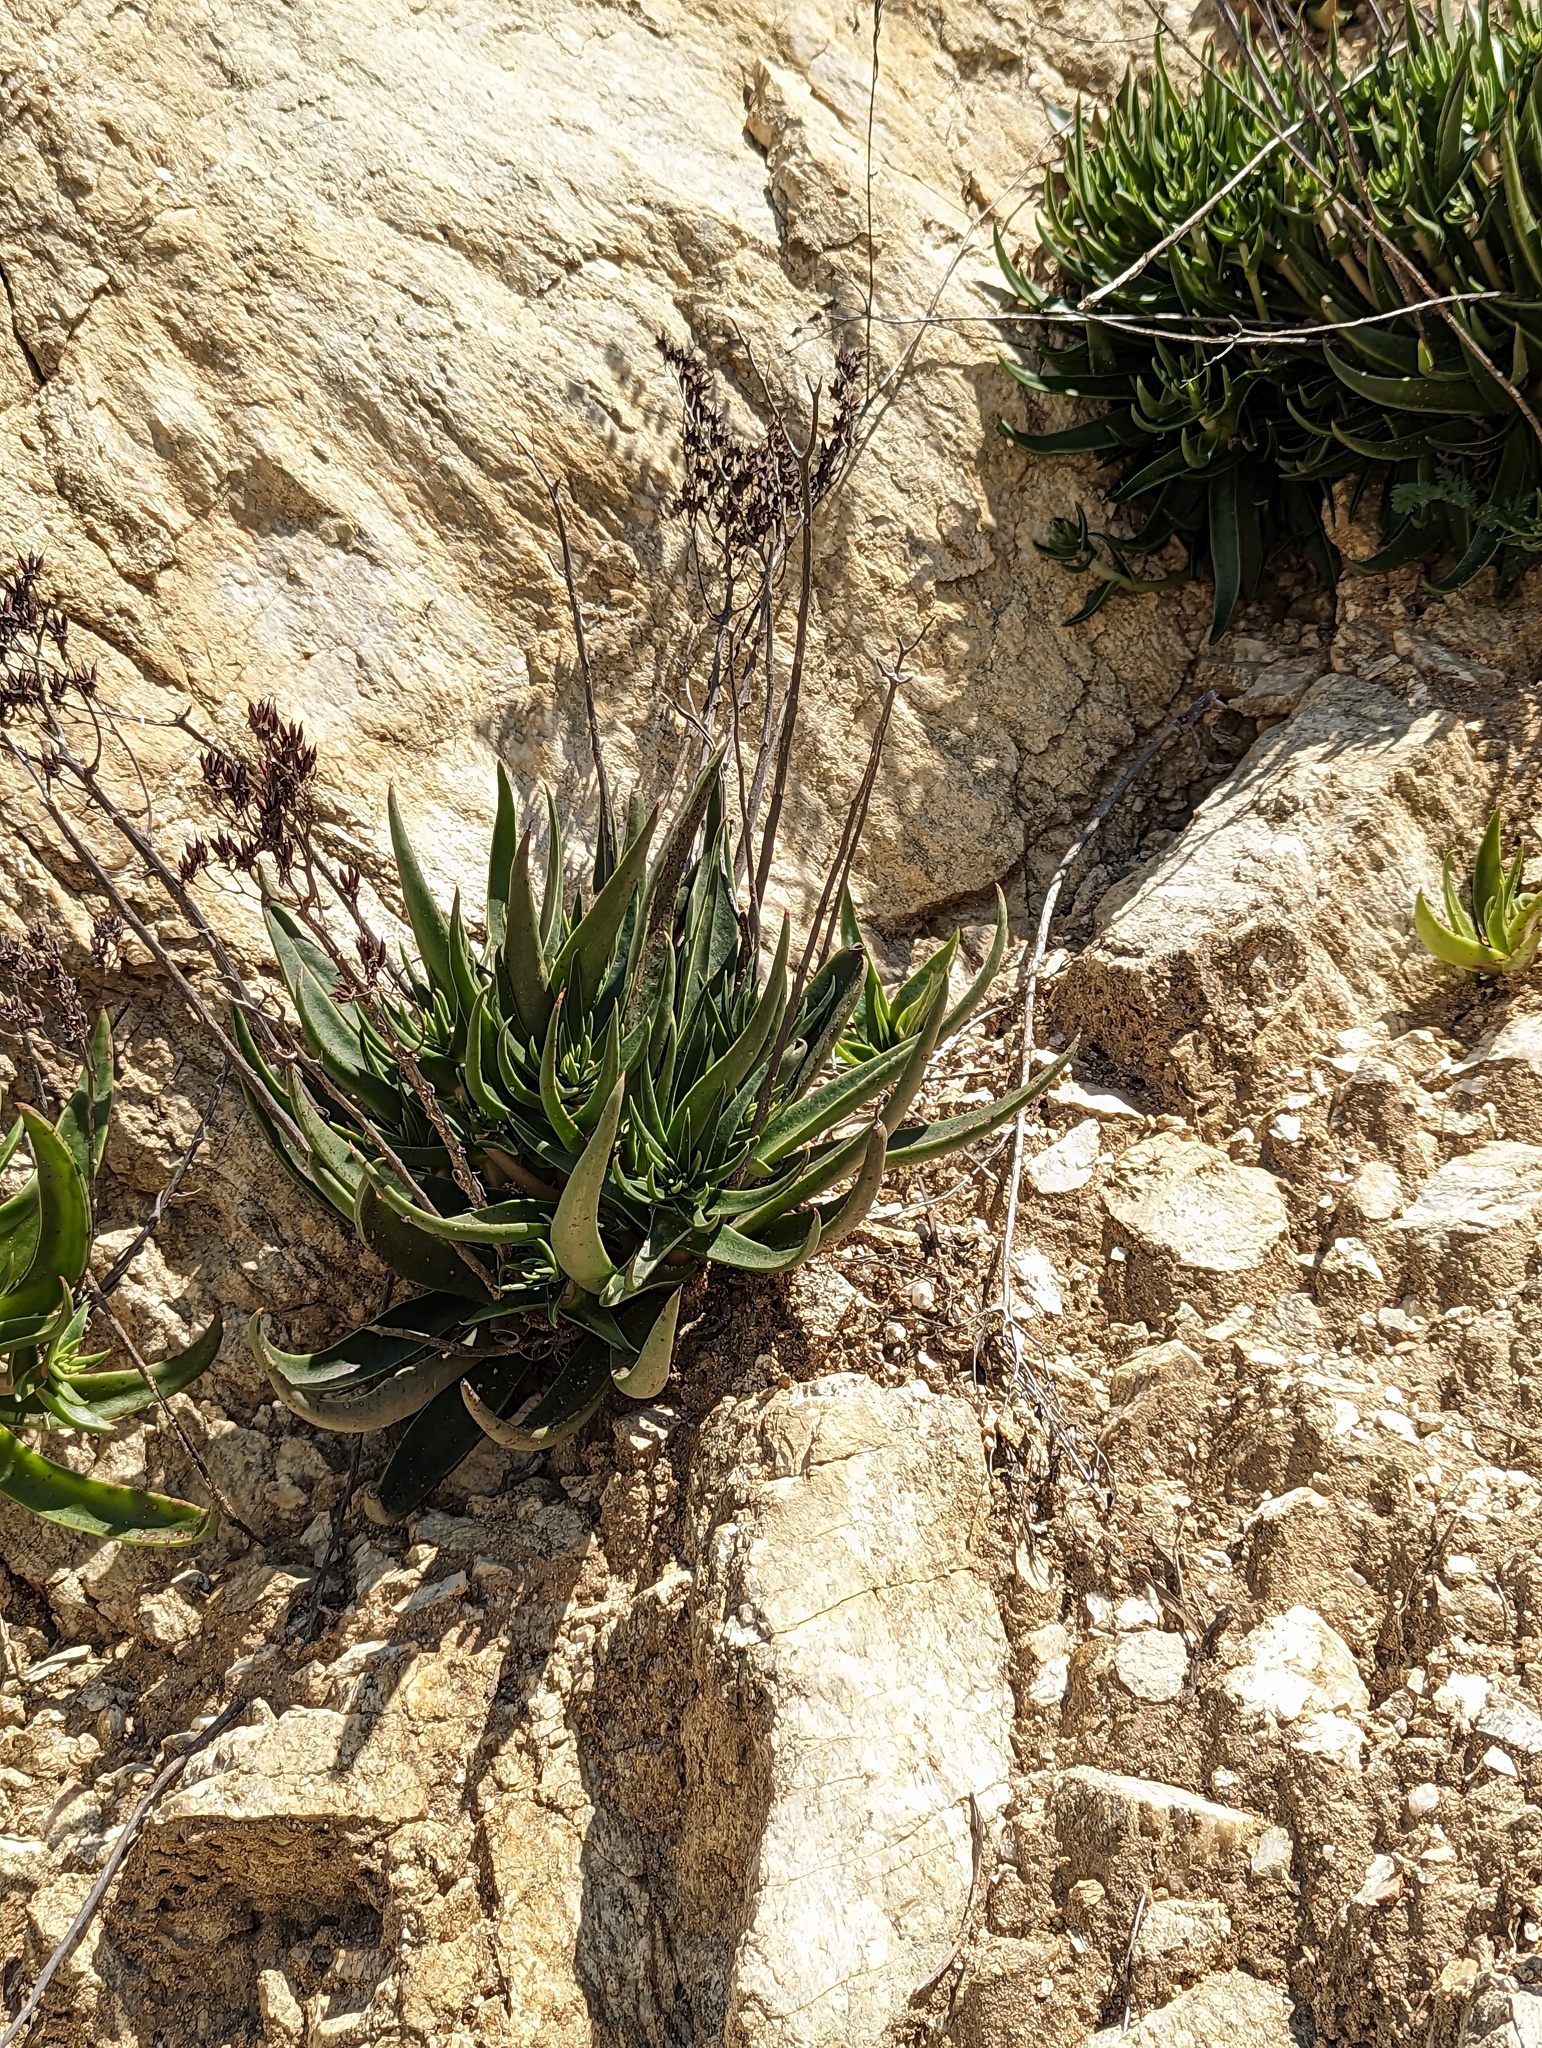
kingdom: Plantae
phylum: Tracheophyta
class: Magnoliopsida
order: Saxifragales
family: Crassulaceae
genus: Dudleya
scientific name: Dudleya lanceolata
